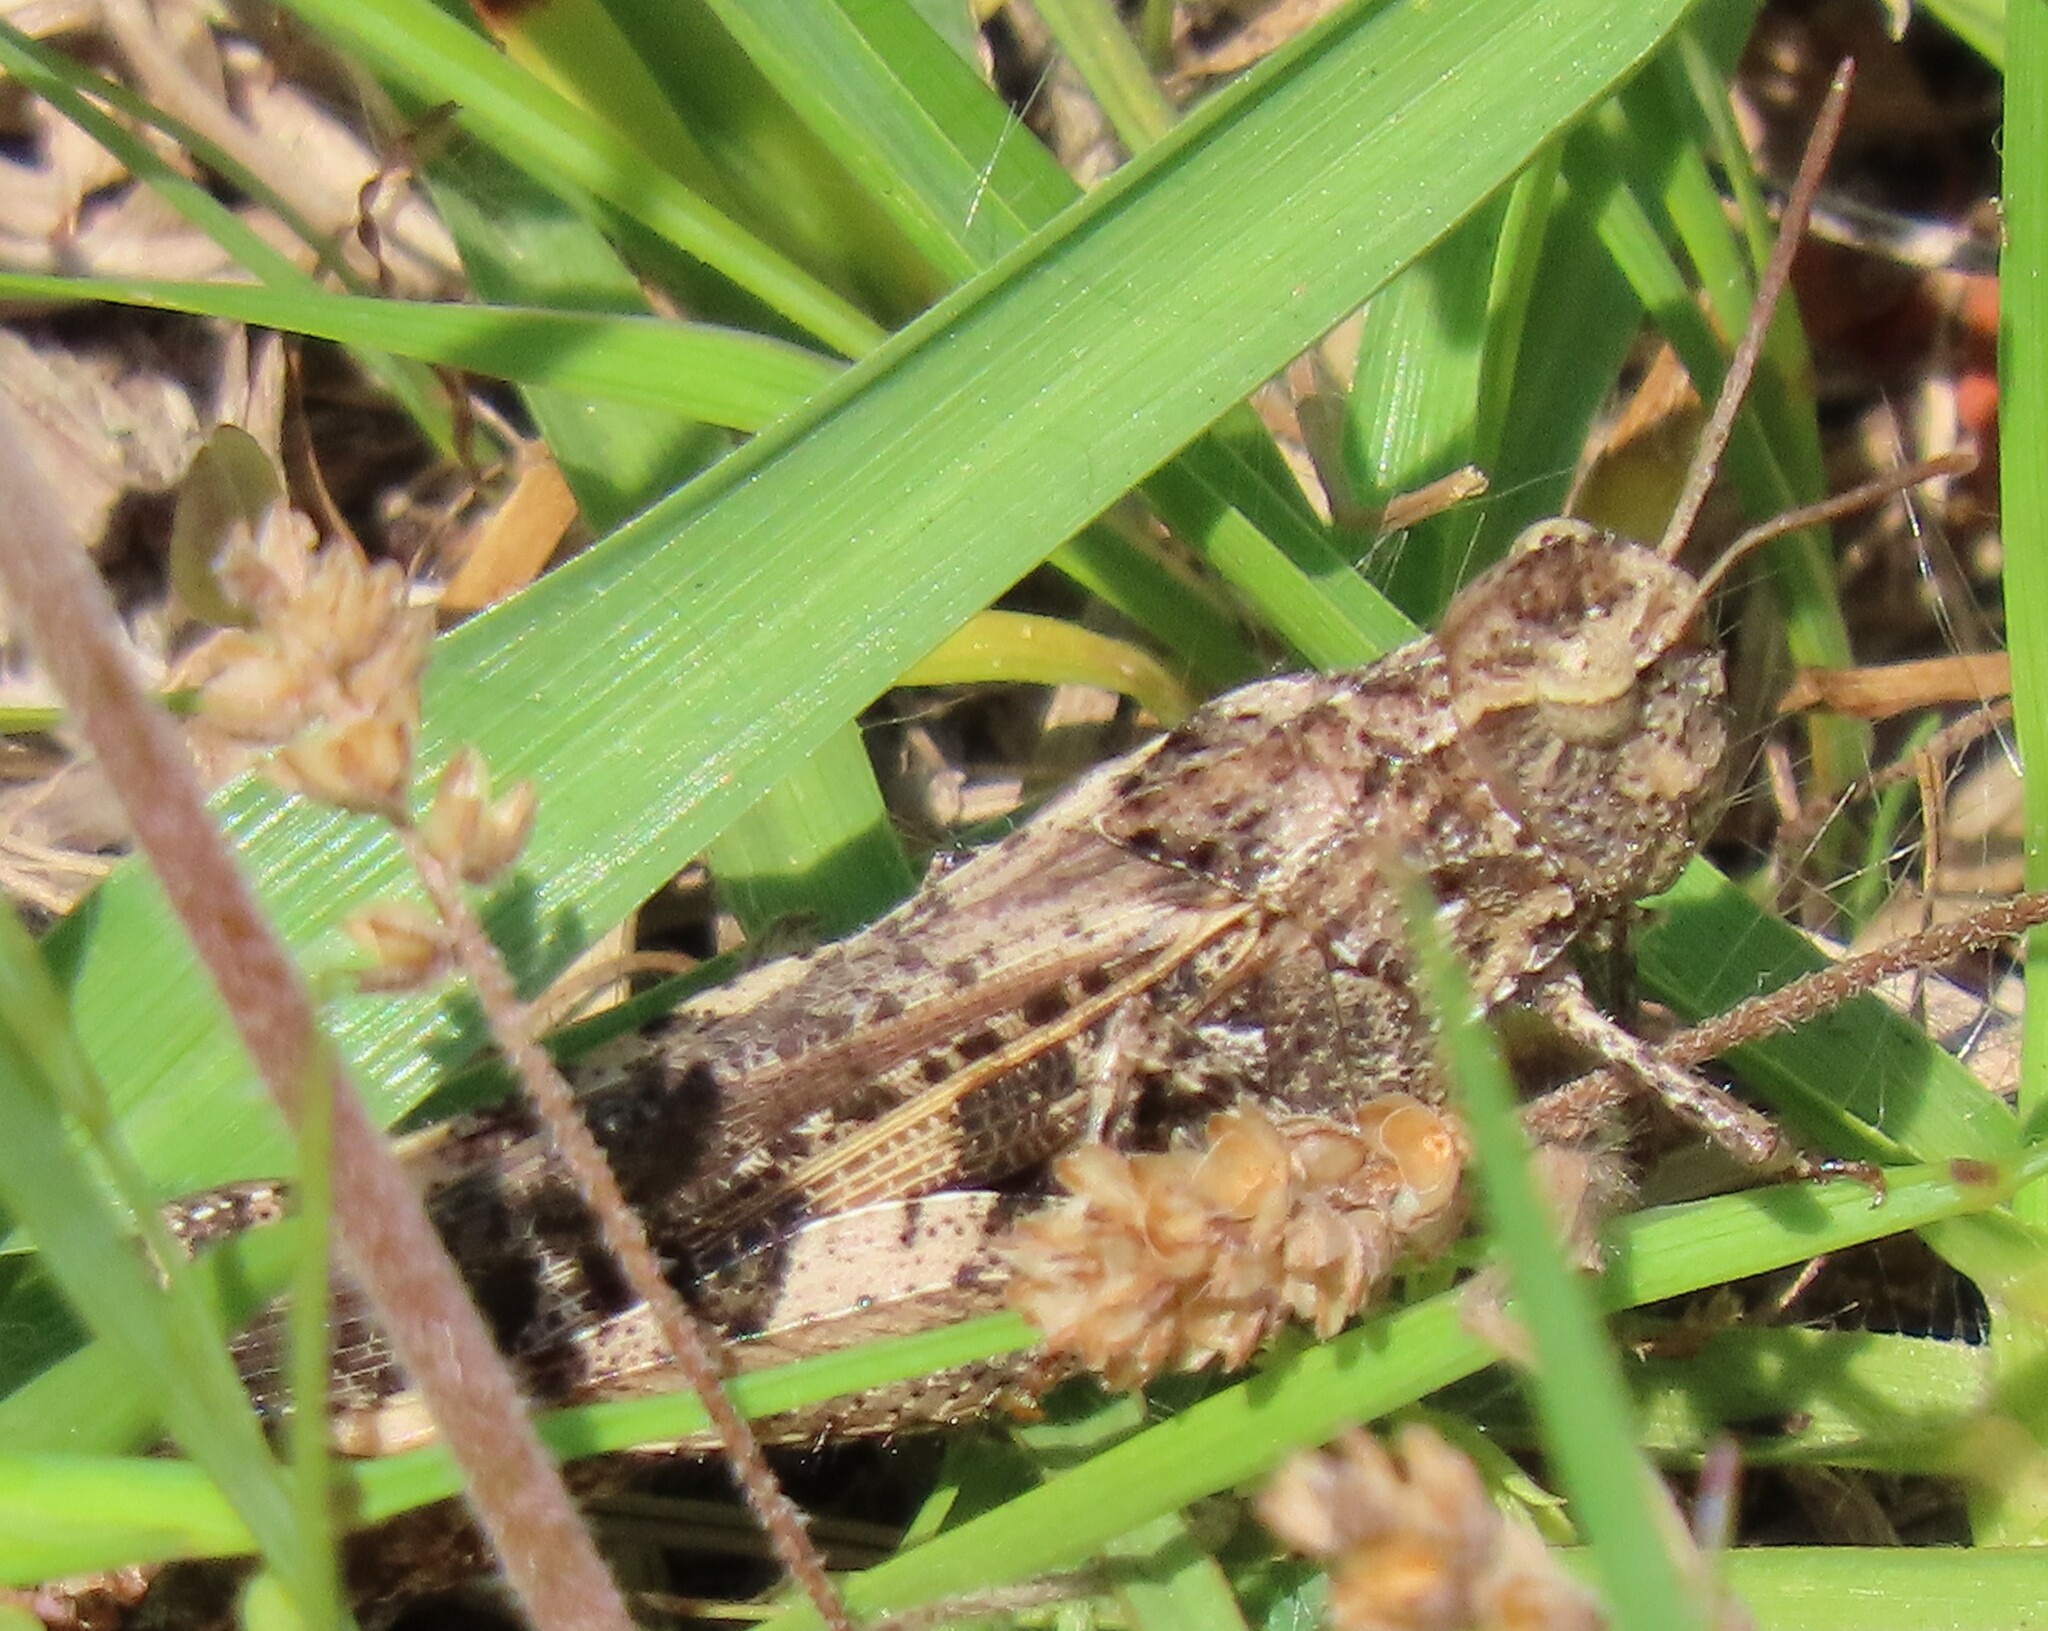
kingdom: Animalia
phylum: Arthropoda
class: Insecta
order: Orthoptera
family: Acrididae
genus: Chortophaga
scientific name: Chortophaga australior
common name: Southern green-striped grasshopper
